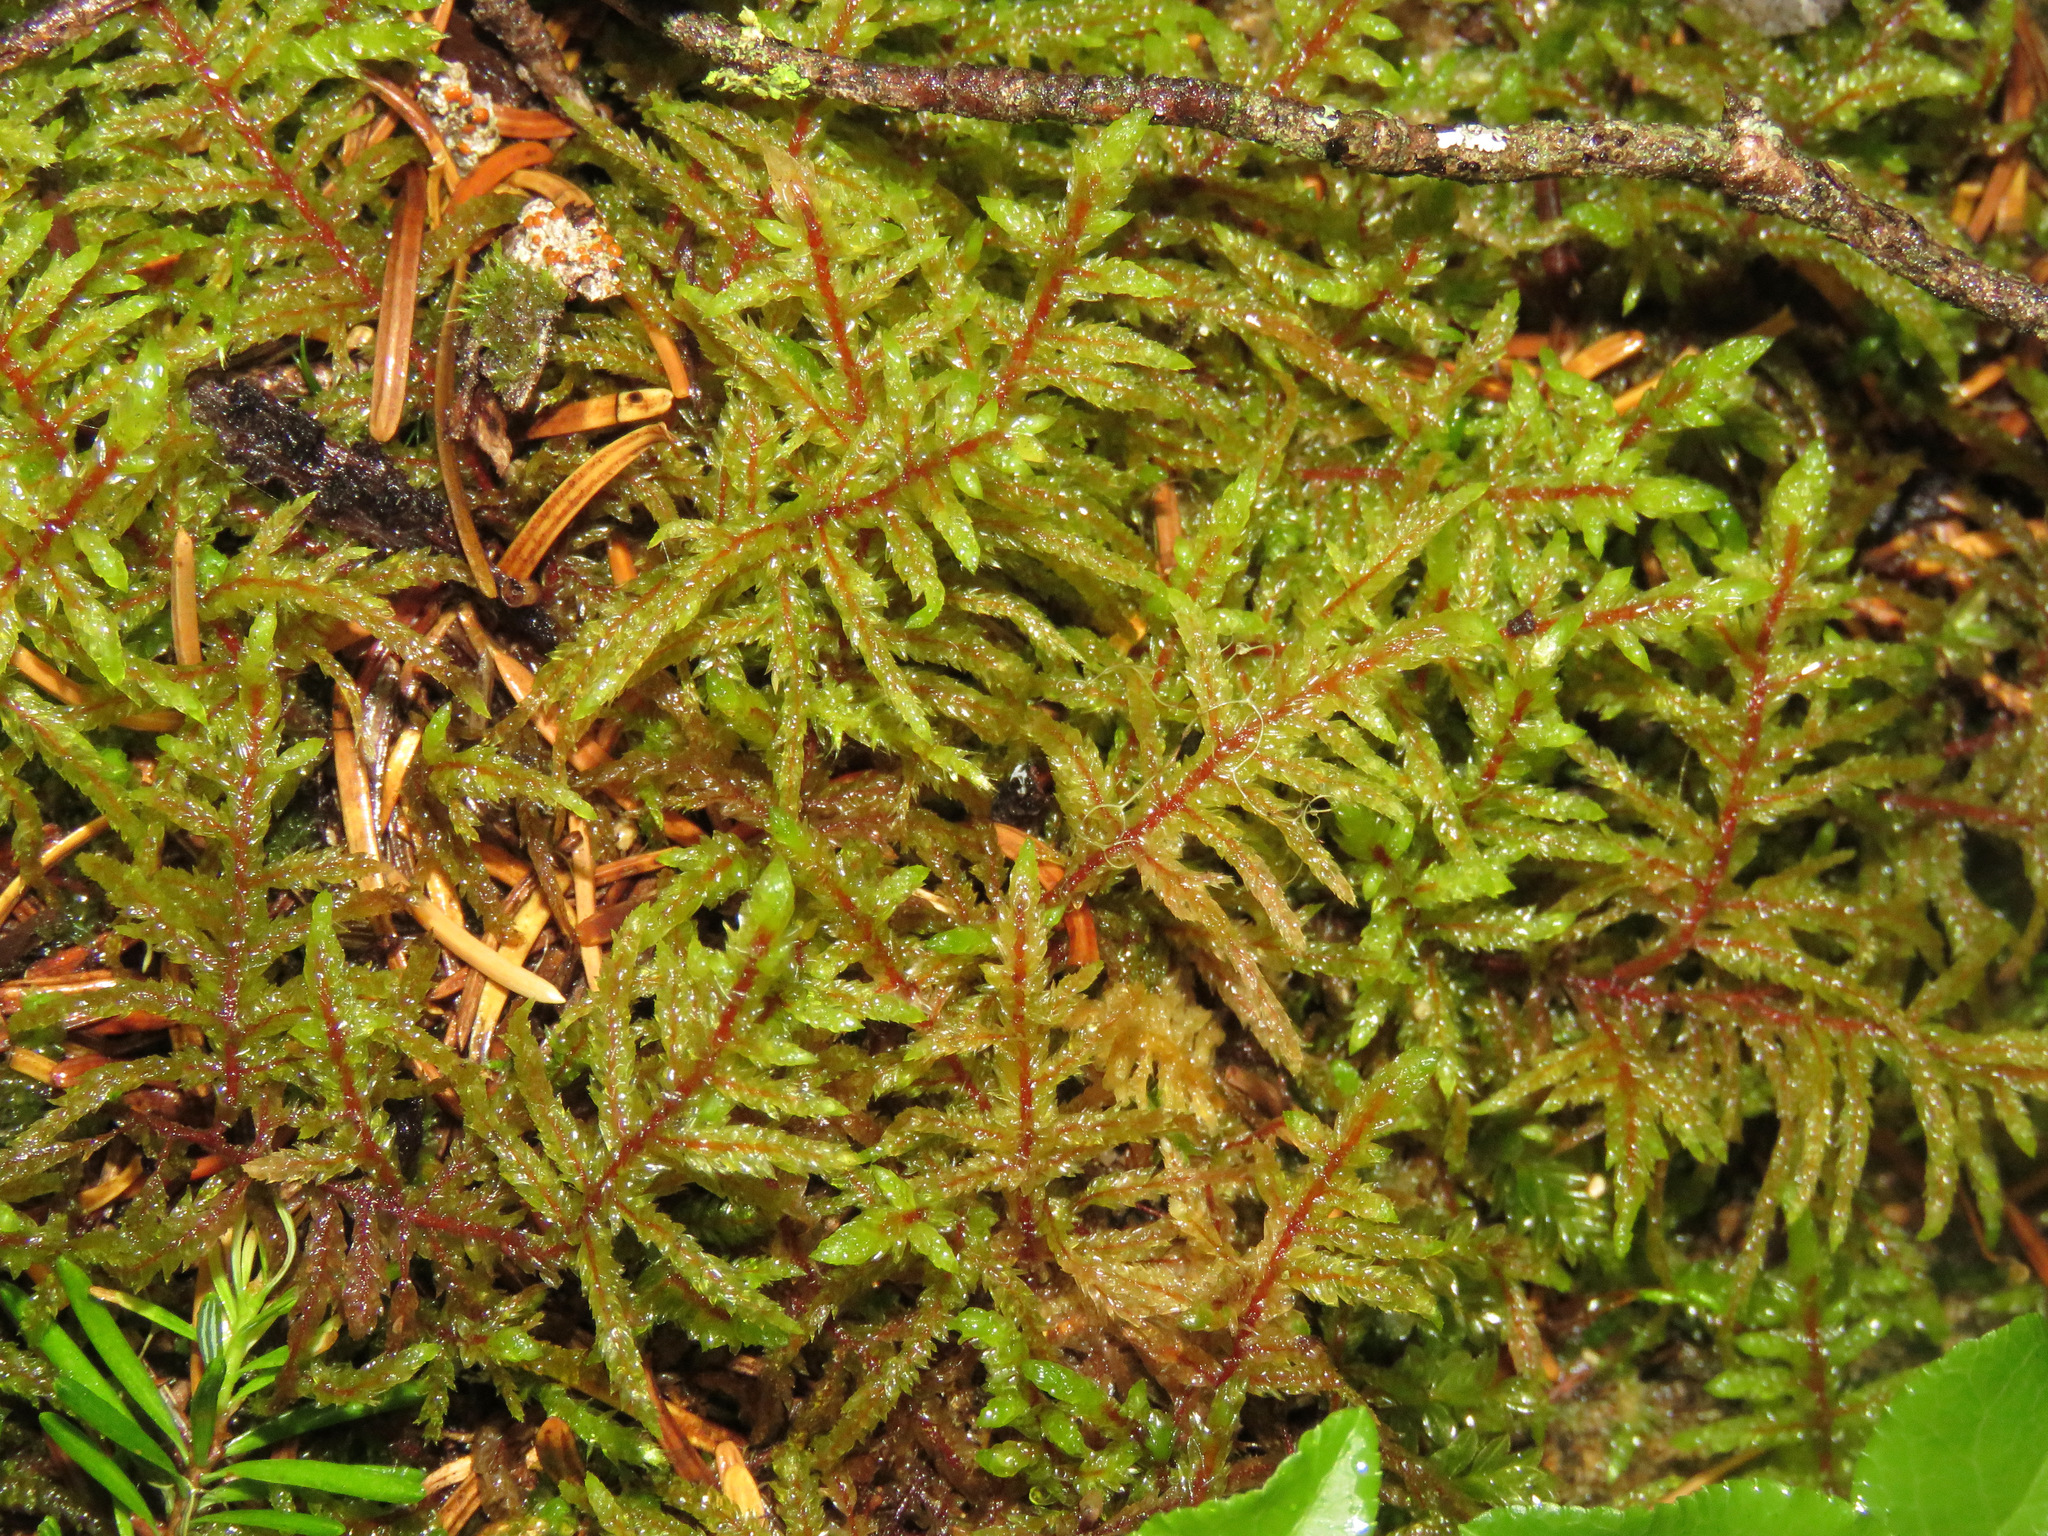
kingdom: Plantae
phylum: Bryophyta
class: Bryopsida
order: Hypnales
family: Hylocomiaceae
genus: Pleurozium
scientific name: Pleurozium schreberi
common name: Red-stemmed feather moss
